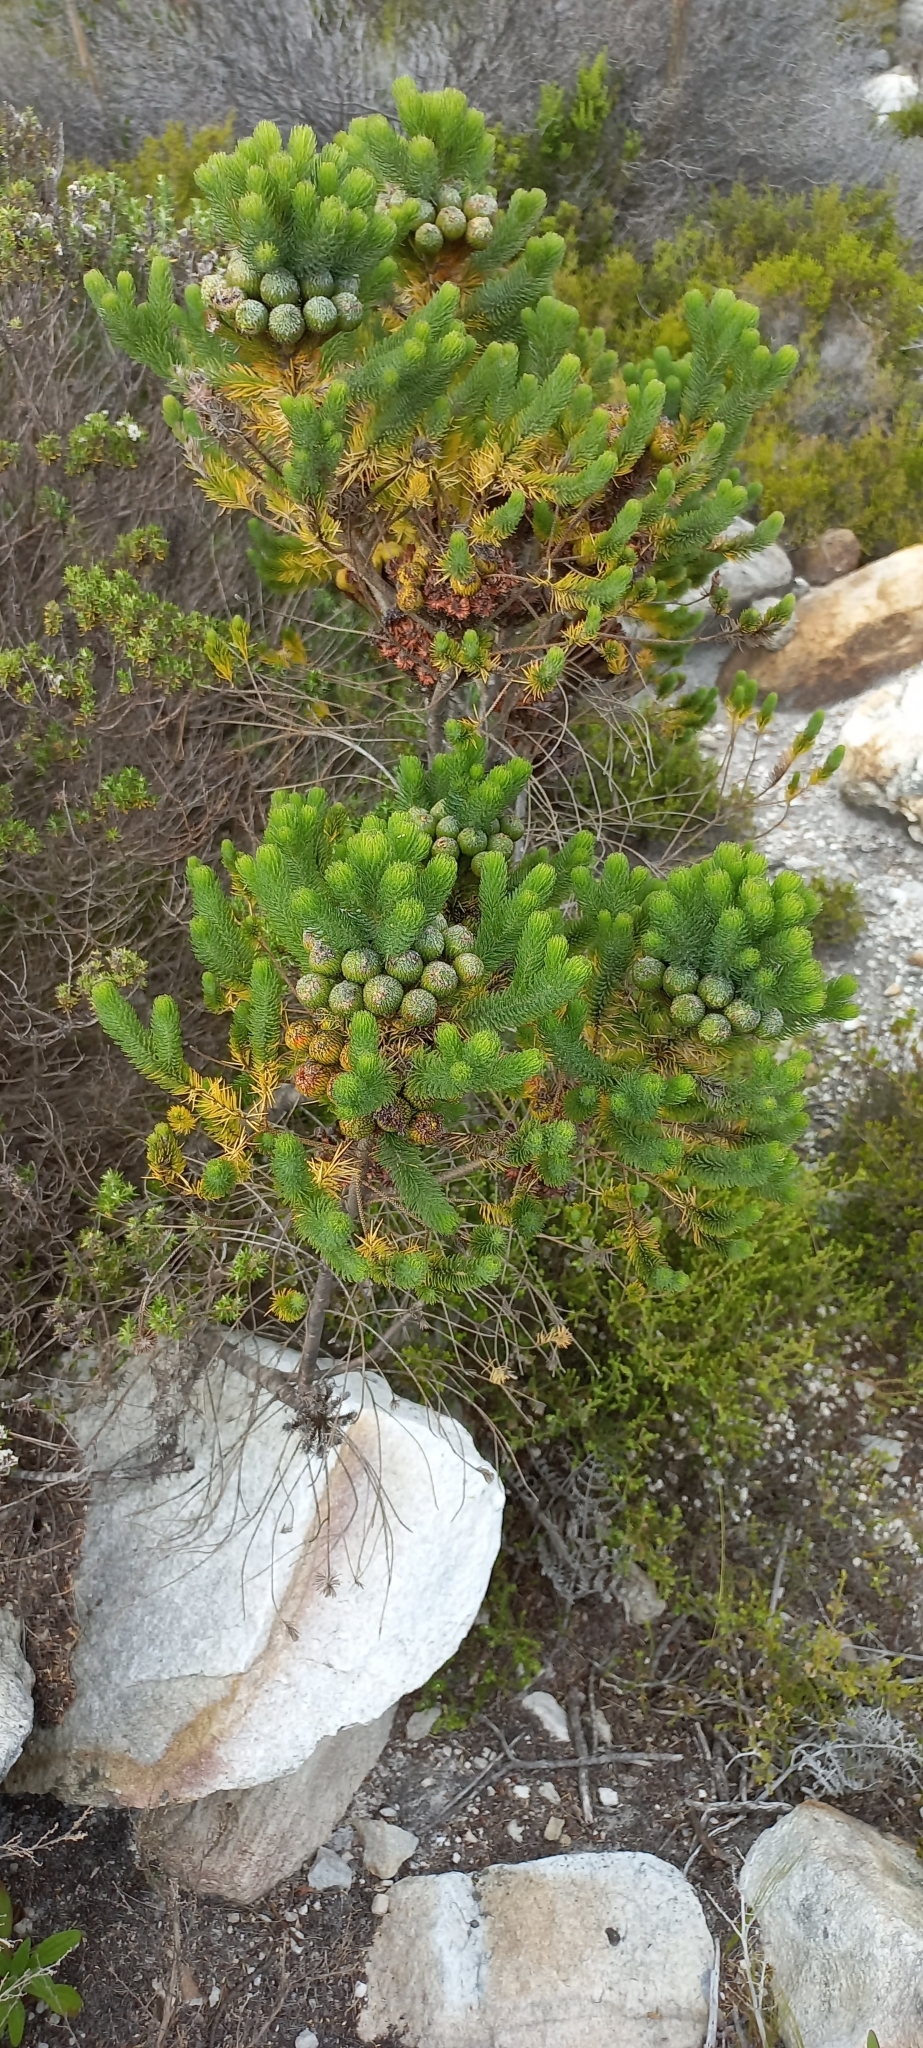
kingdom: Plantae
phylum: Tracheophyta
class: Magnoliopsida
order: Bruniales
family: Bruniaceae
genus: Berzelia
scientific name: Berzelia albiflora
